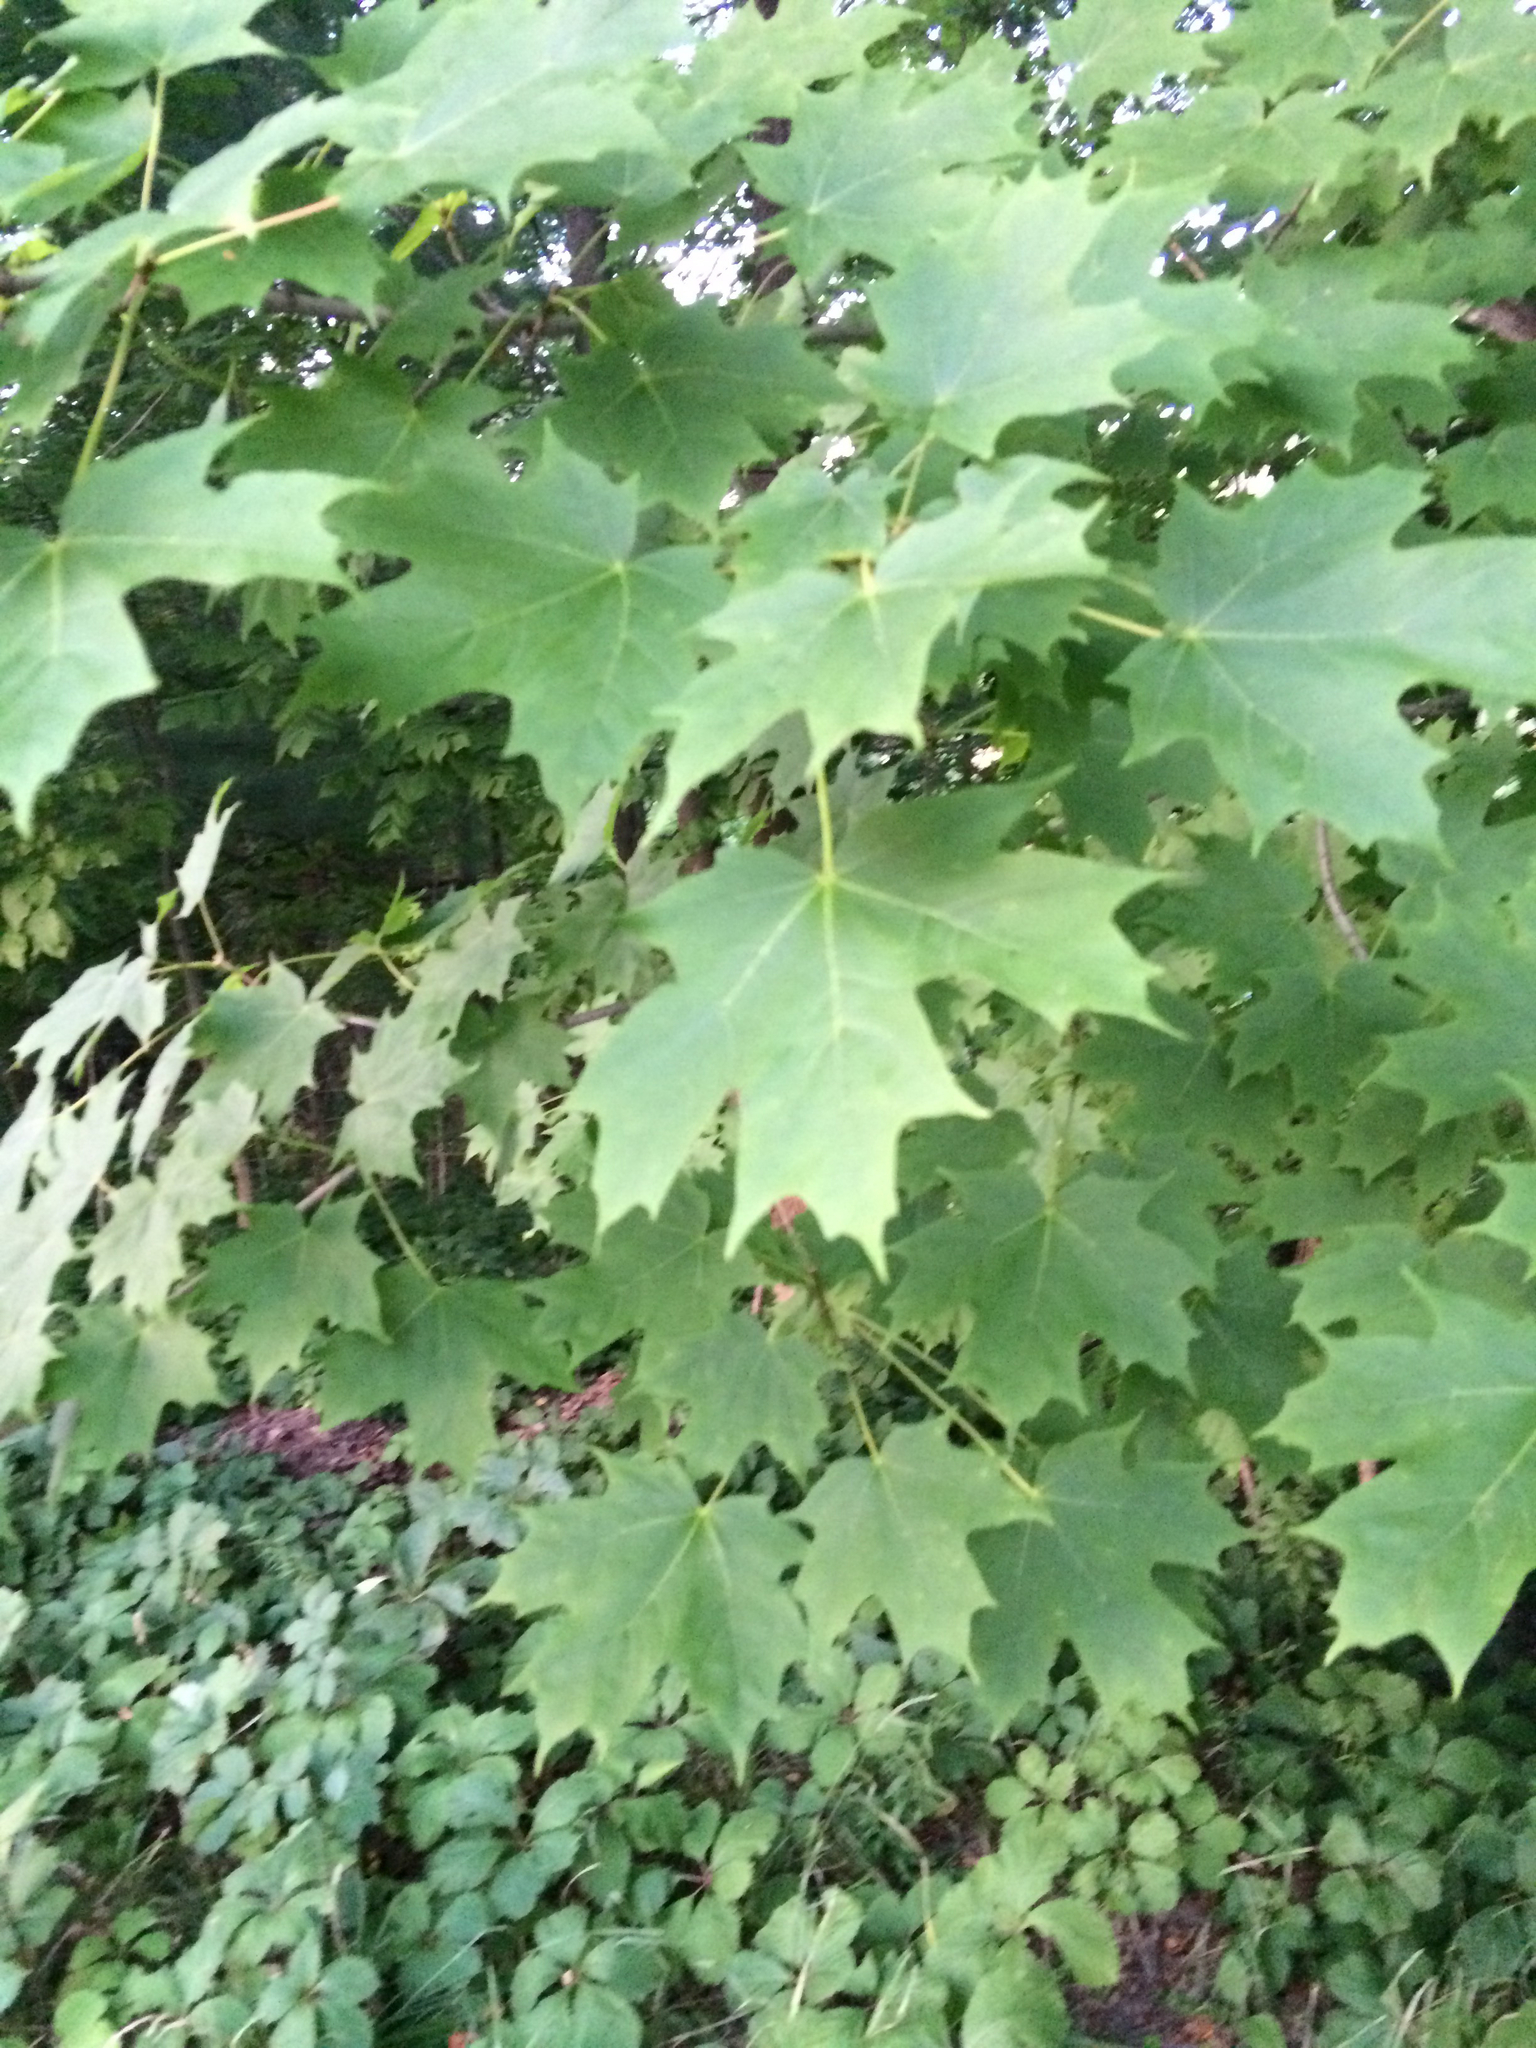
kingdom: Plantae
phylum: Tracheophyta
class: Magnoliopsida
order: Sapindales
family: Sapindaceae
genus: Acer
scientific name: Acer saccharum
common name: Sugar maple
